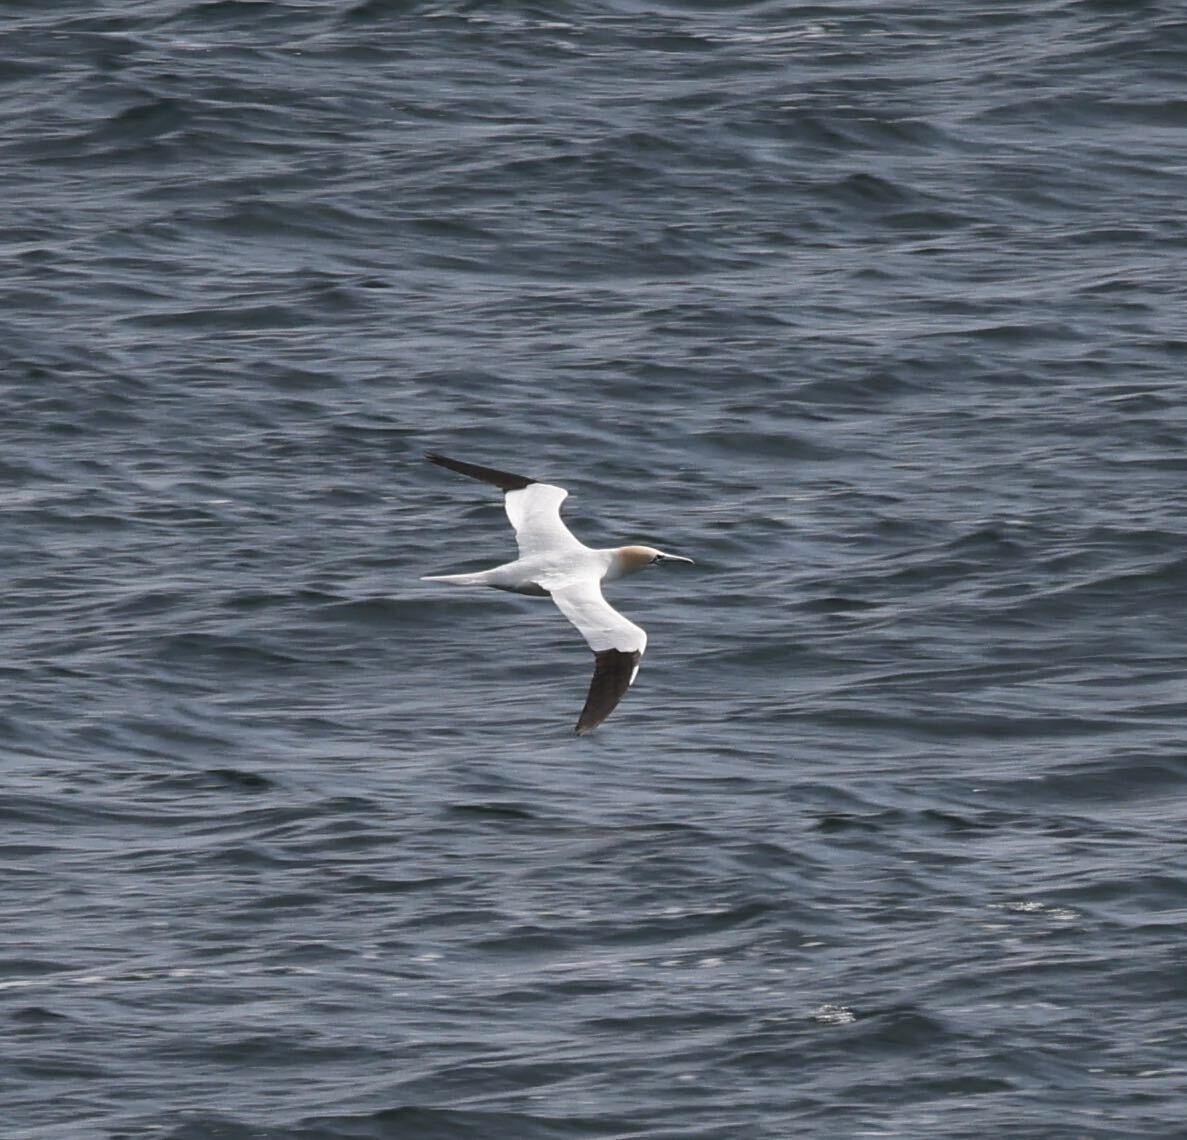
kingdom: Animalia
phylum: Chordata
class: Aves
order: Suliformes
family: Sulidae
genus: Morus
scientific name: Morus bassanus
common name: Northern gannet
